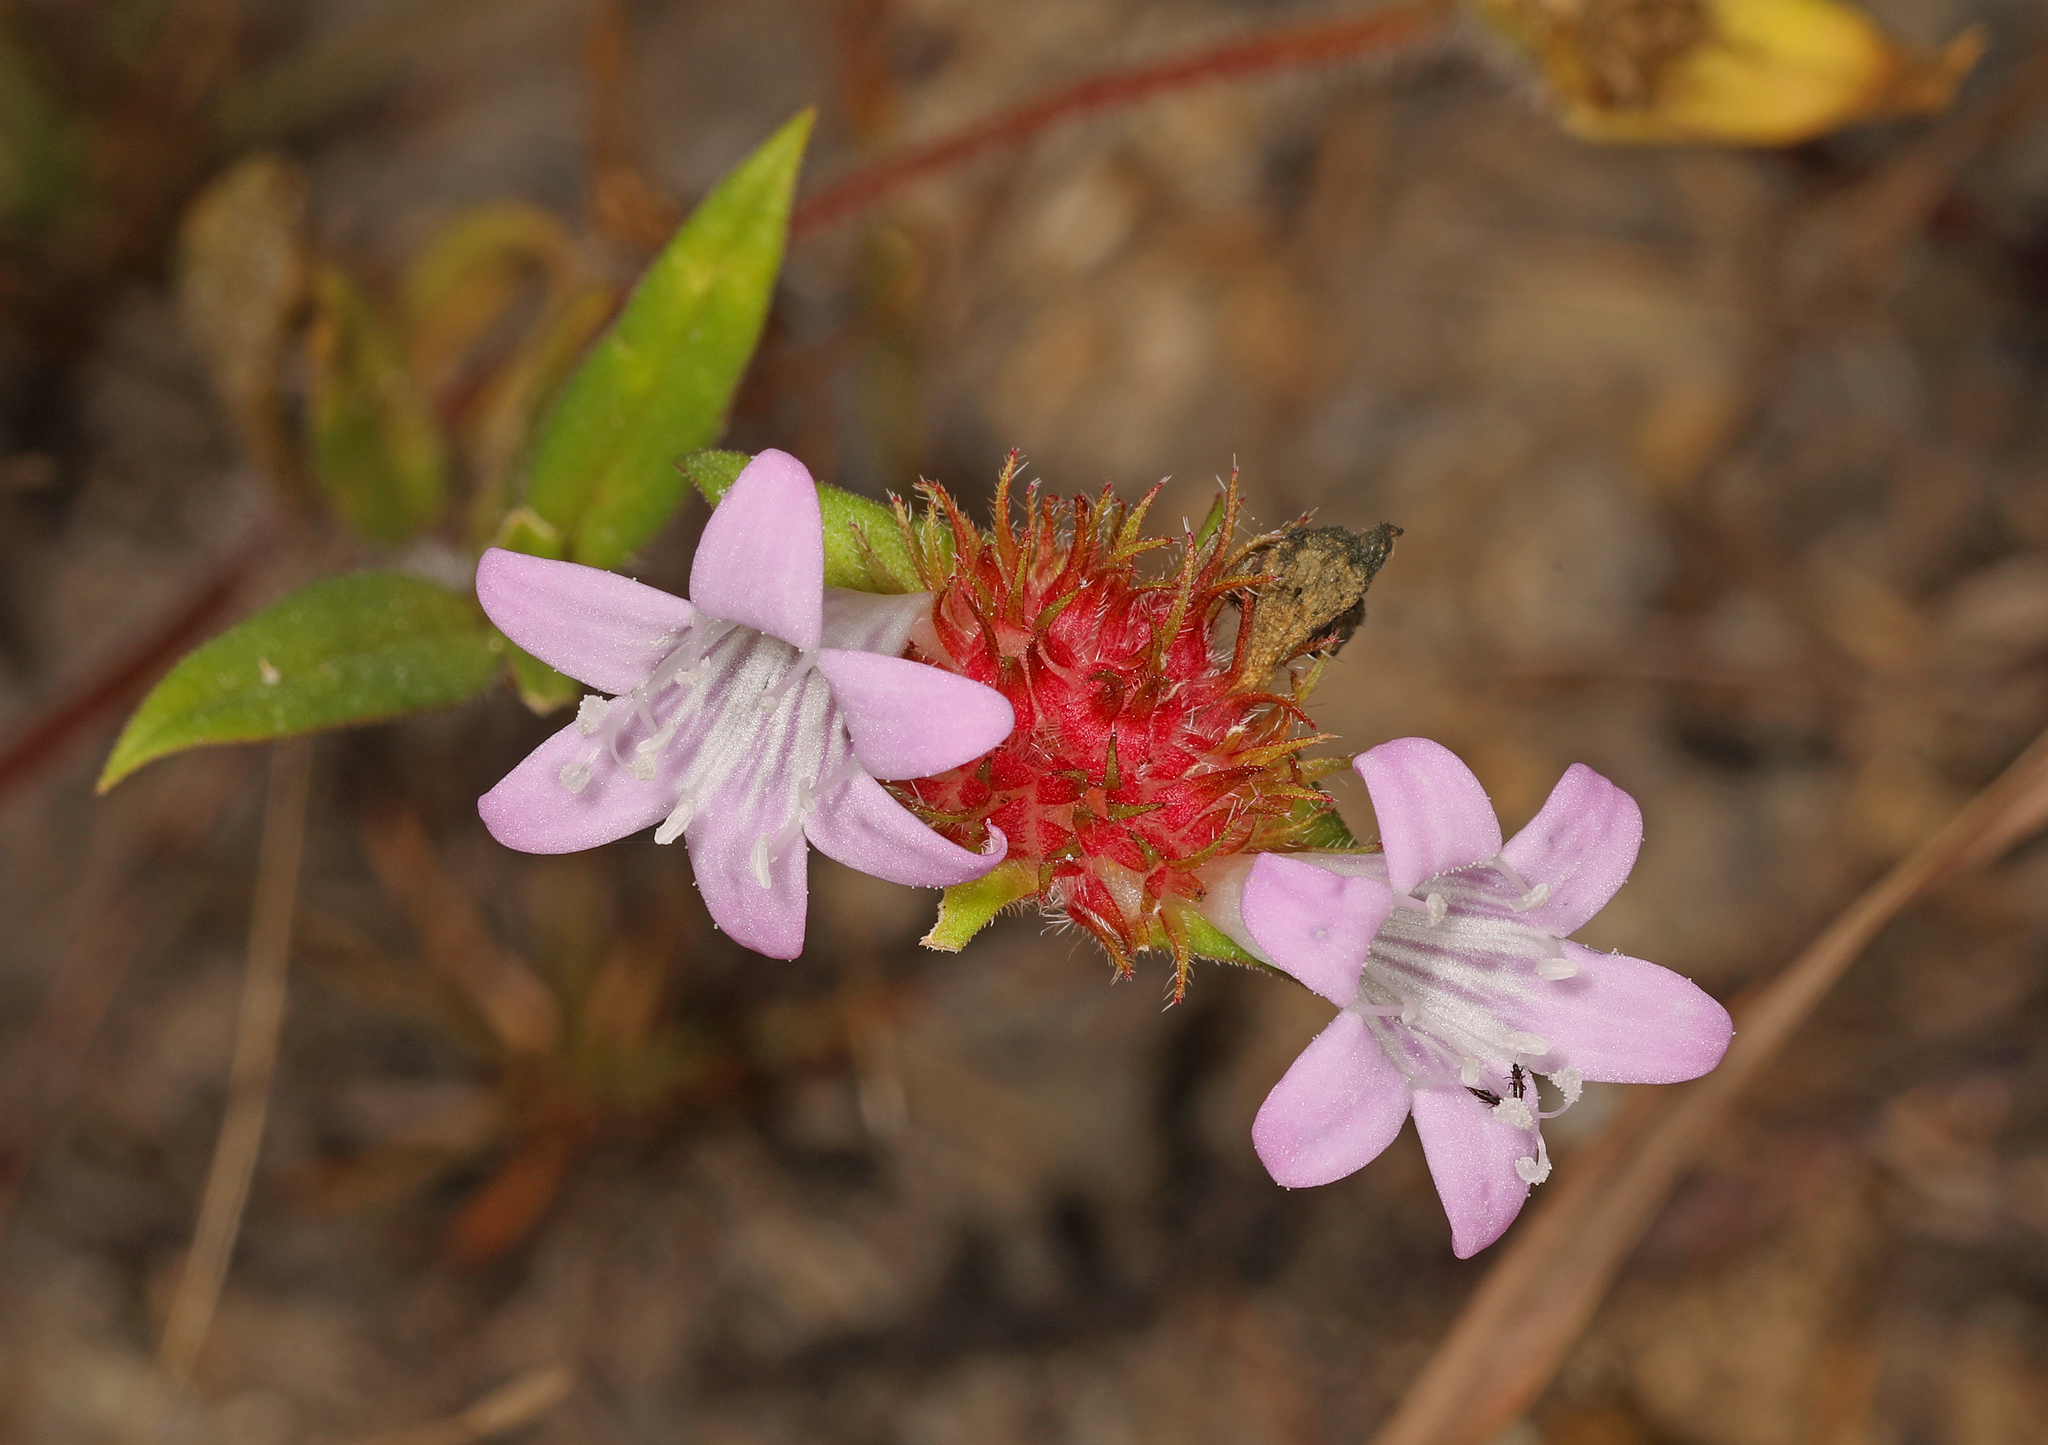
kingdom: Plantae
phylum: Tracheophyta
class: Magnoliopsida
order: Gentianales
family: Rubiaceae
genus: Richardia
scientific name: Richardia grandiflora
